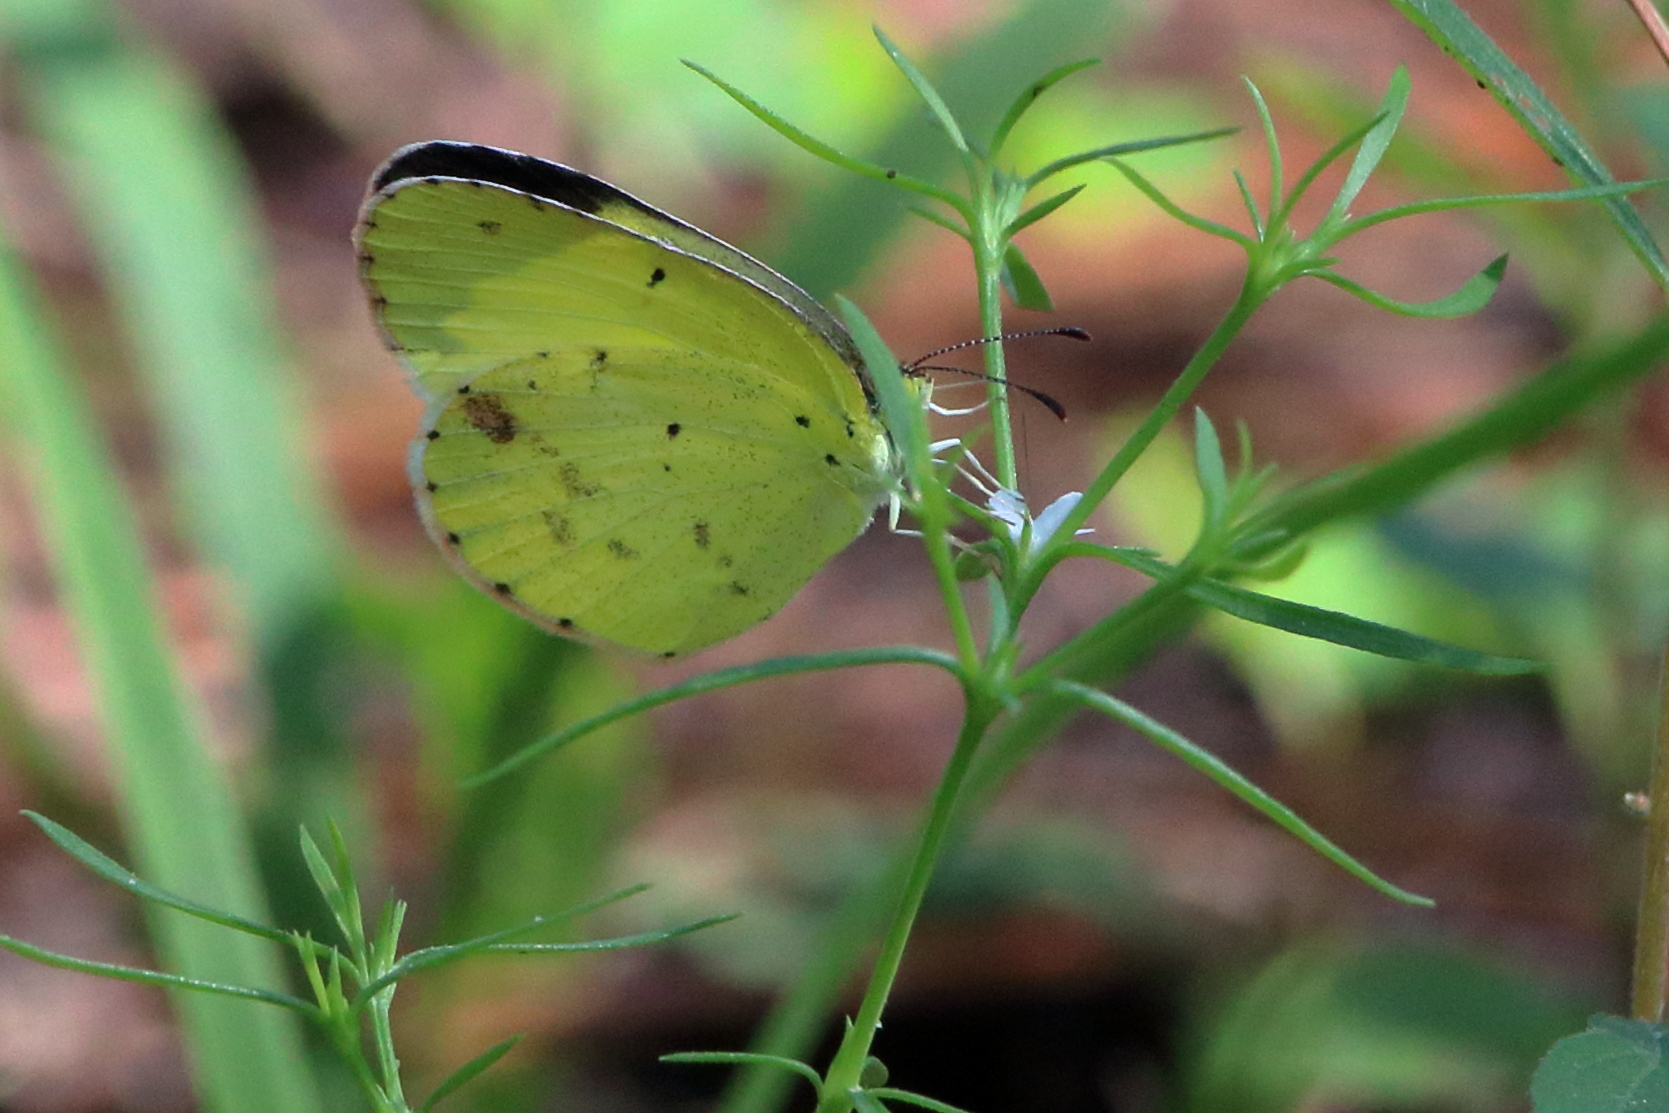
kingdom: Animalia
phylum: Arthropoda
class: Insecta
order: Lepidoptera
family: Pieridae
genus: Pyrisitia
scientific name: Pyrisitia lisa
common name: Little yellow
